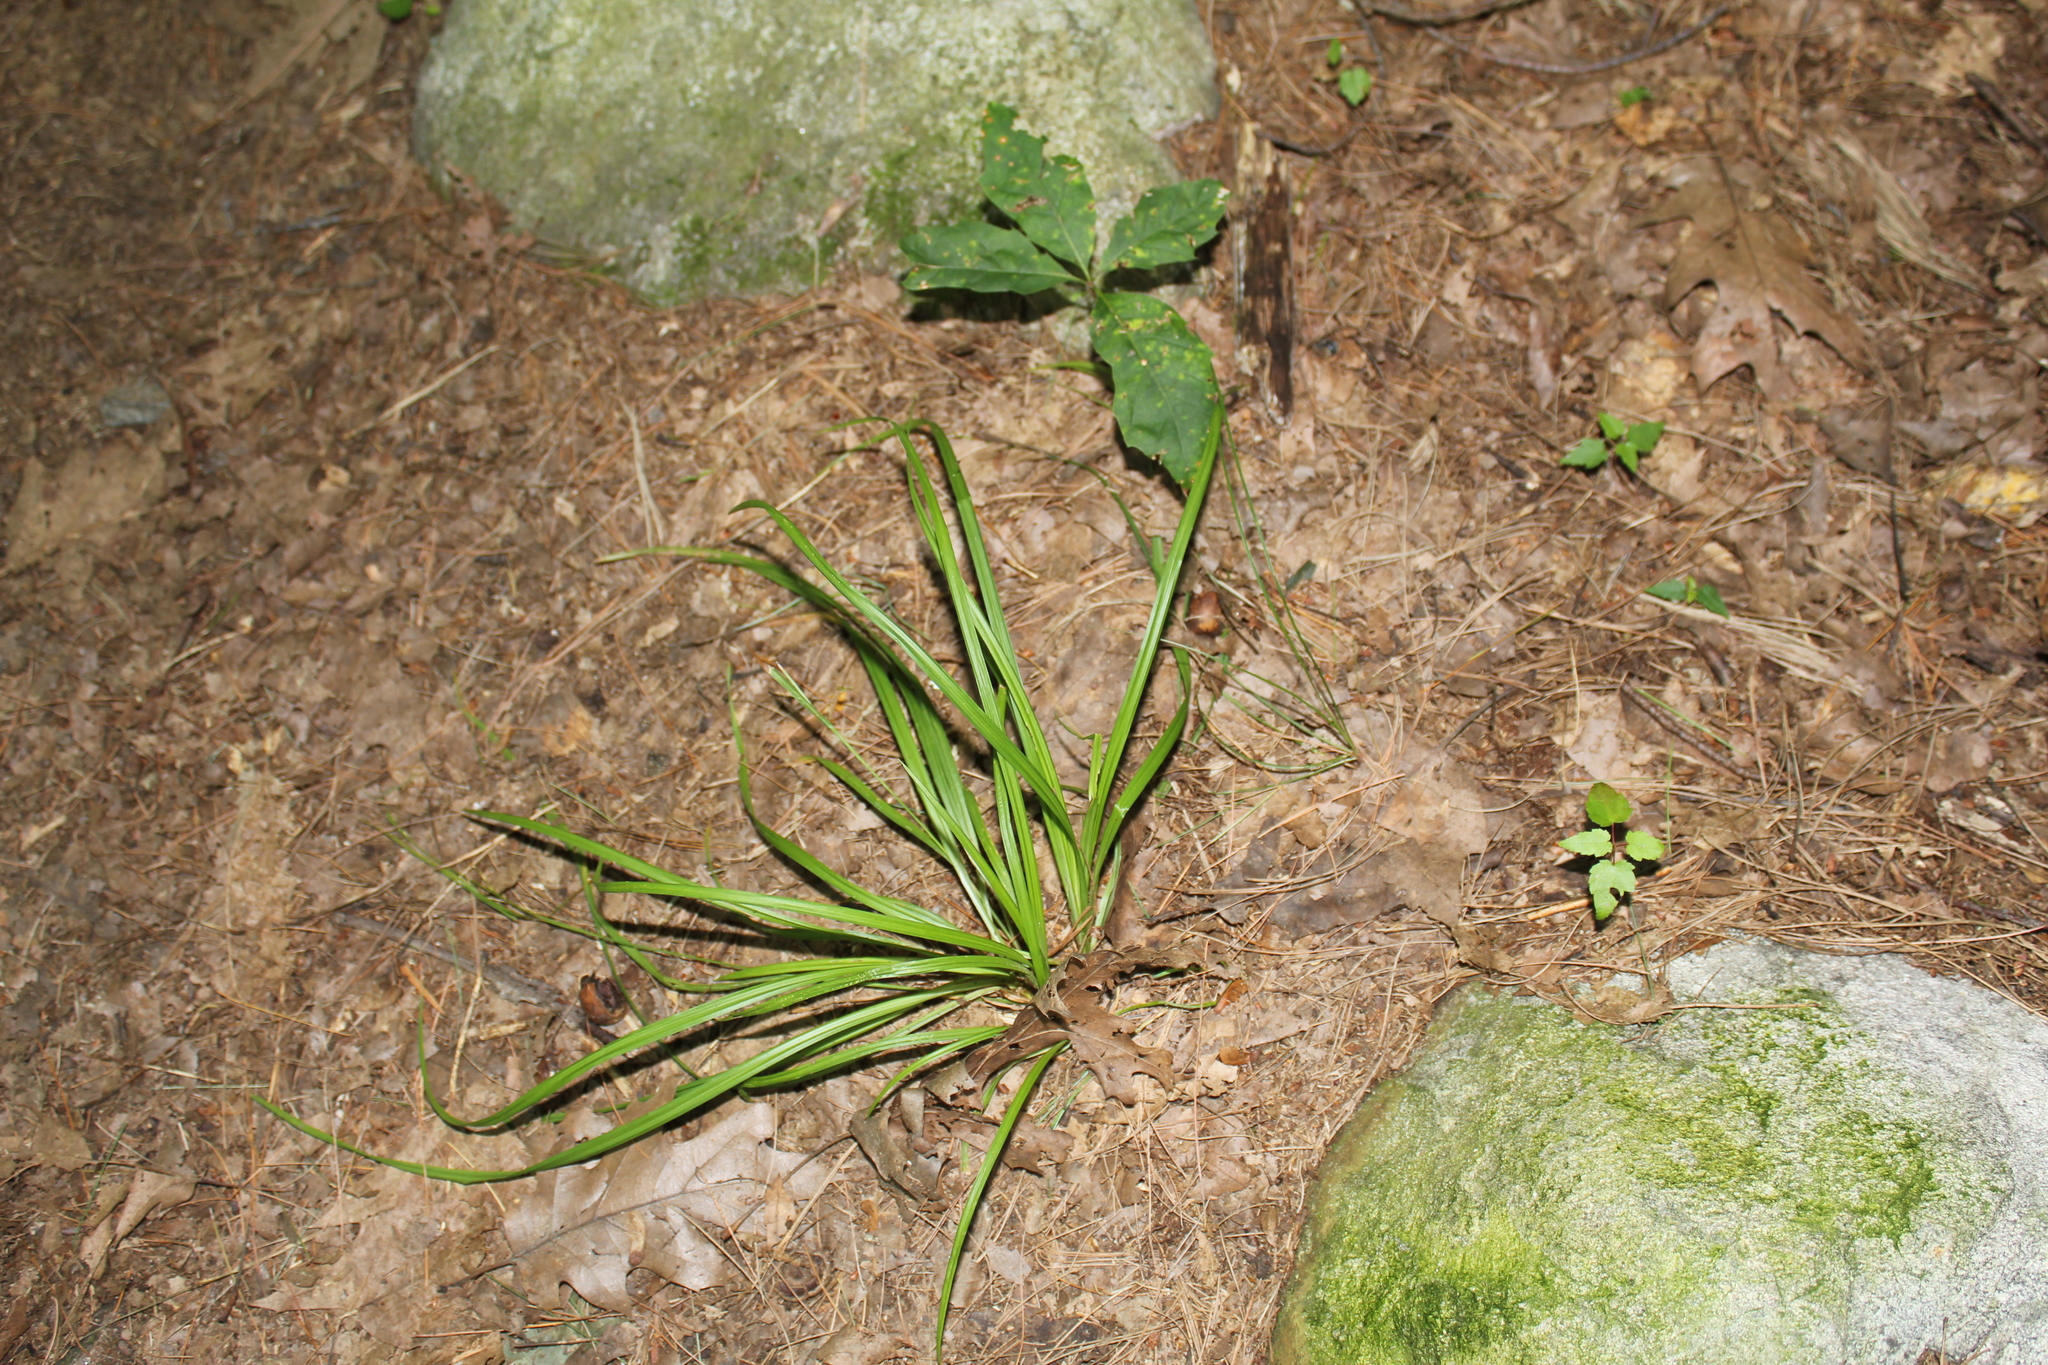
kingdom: Plantae
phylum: Tracheophyta
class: Liliopsida
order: Poales
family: Cyperaceae
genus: Carex
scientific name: Carex
